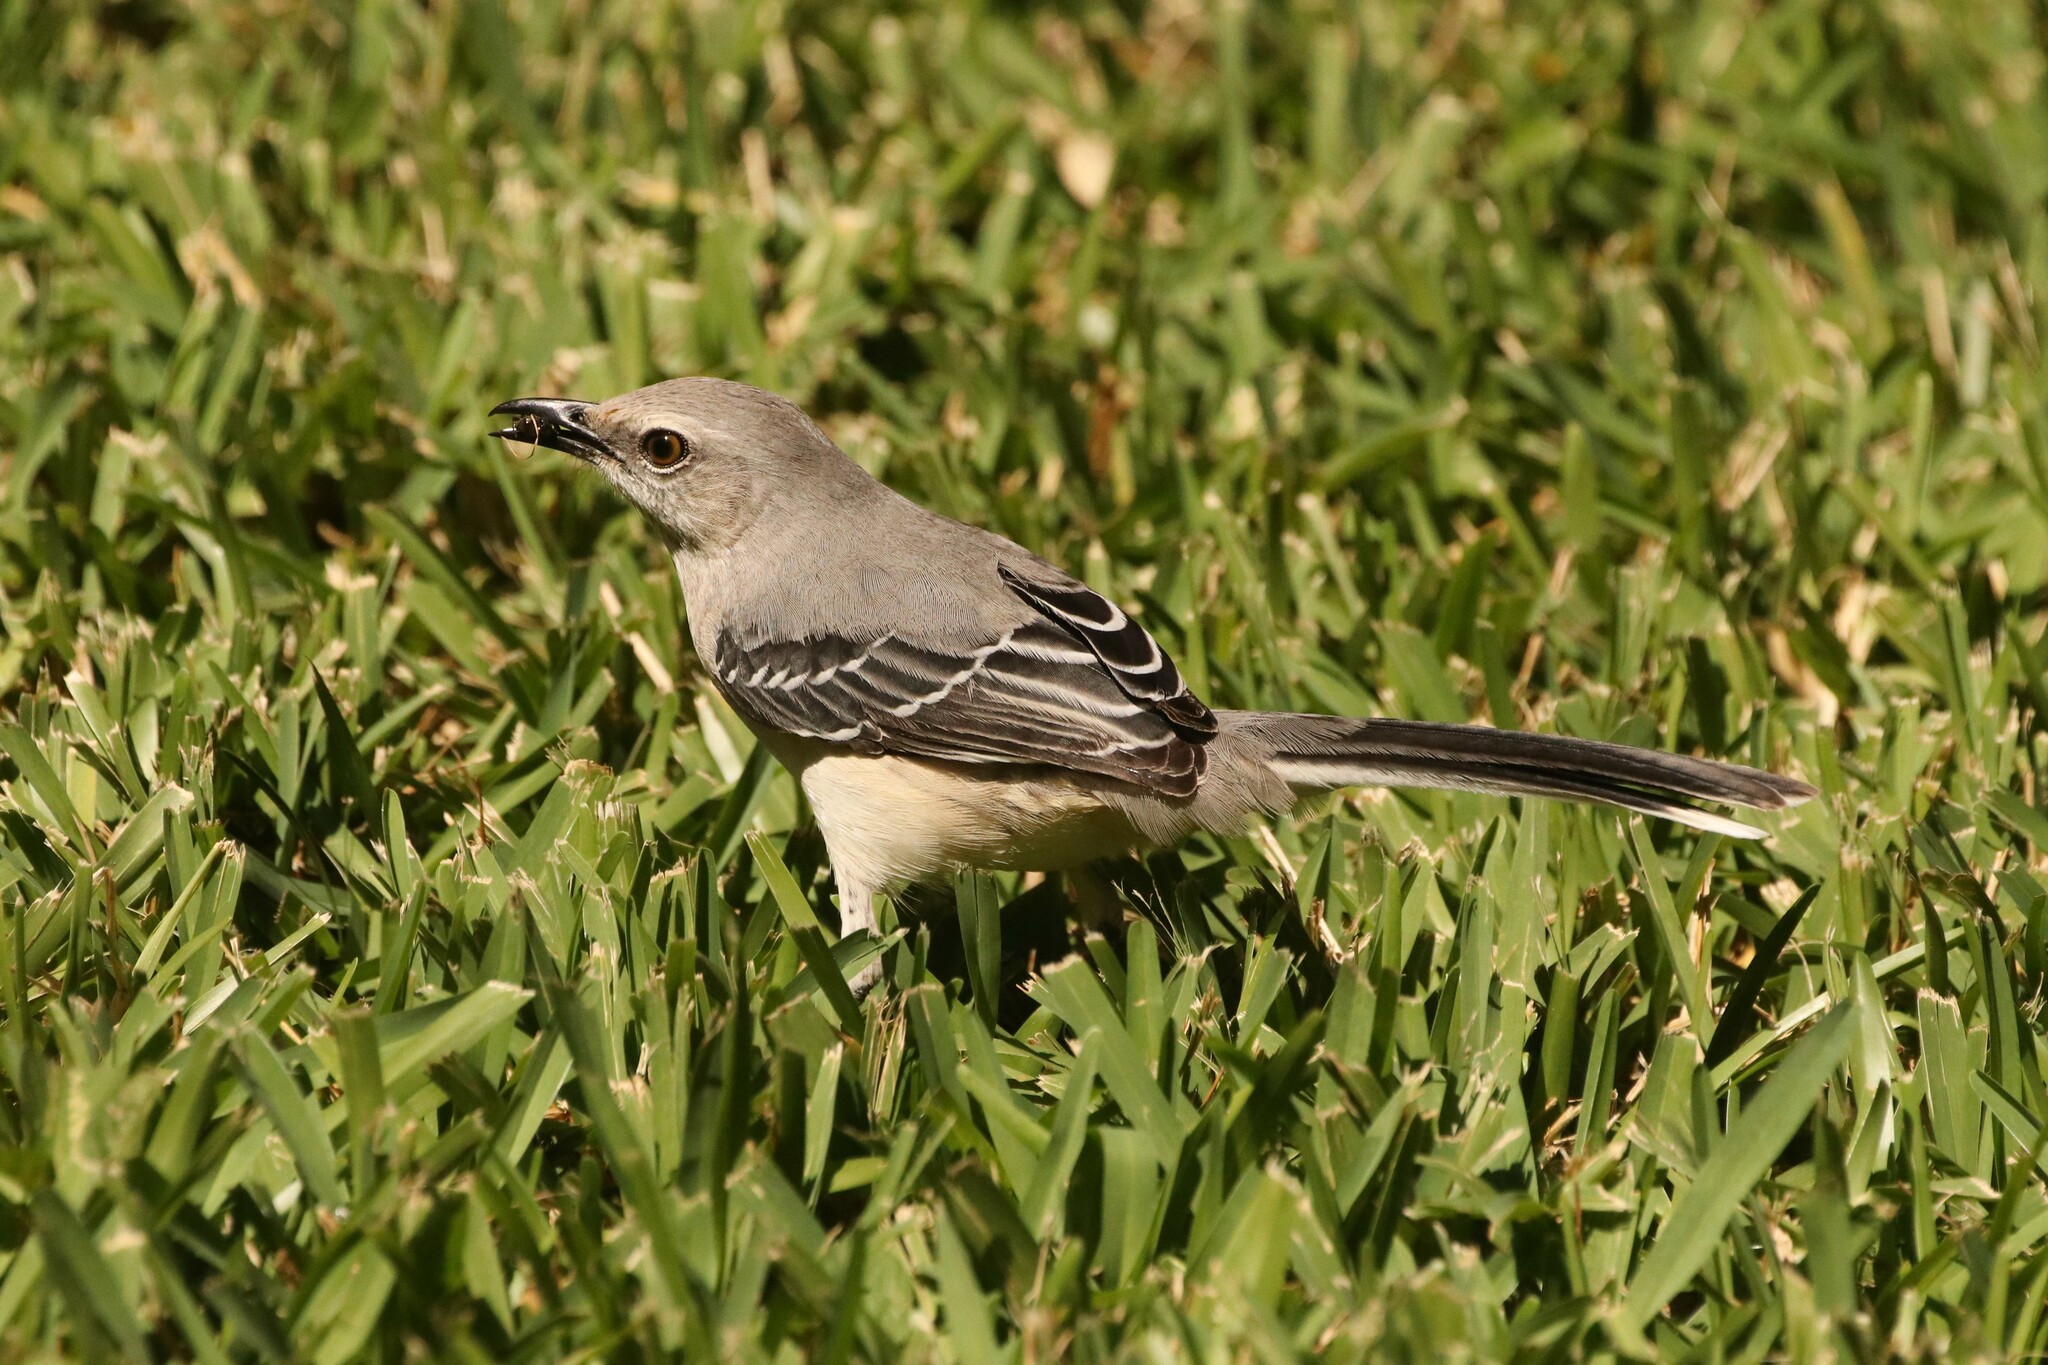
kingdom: Animalia
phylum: Chordata
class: Aves
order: Passeriformes
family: Mimidae
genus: Mimus
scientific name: Mimus gilvus
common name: Tropical mockingbird
